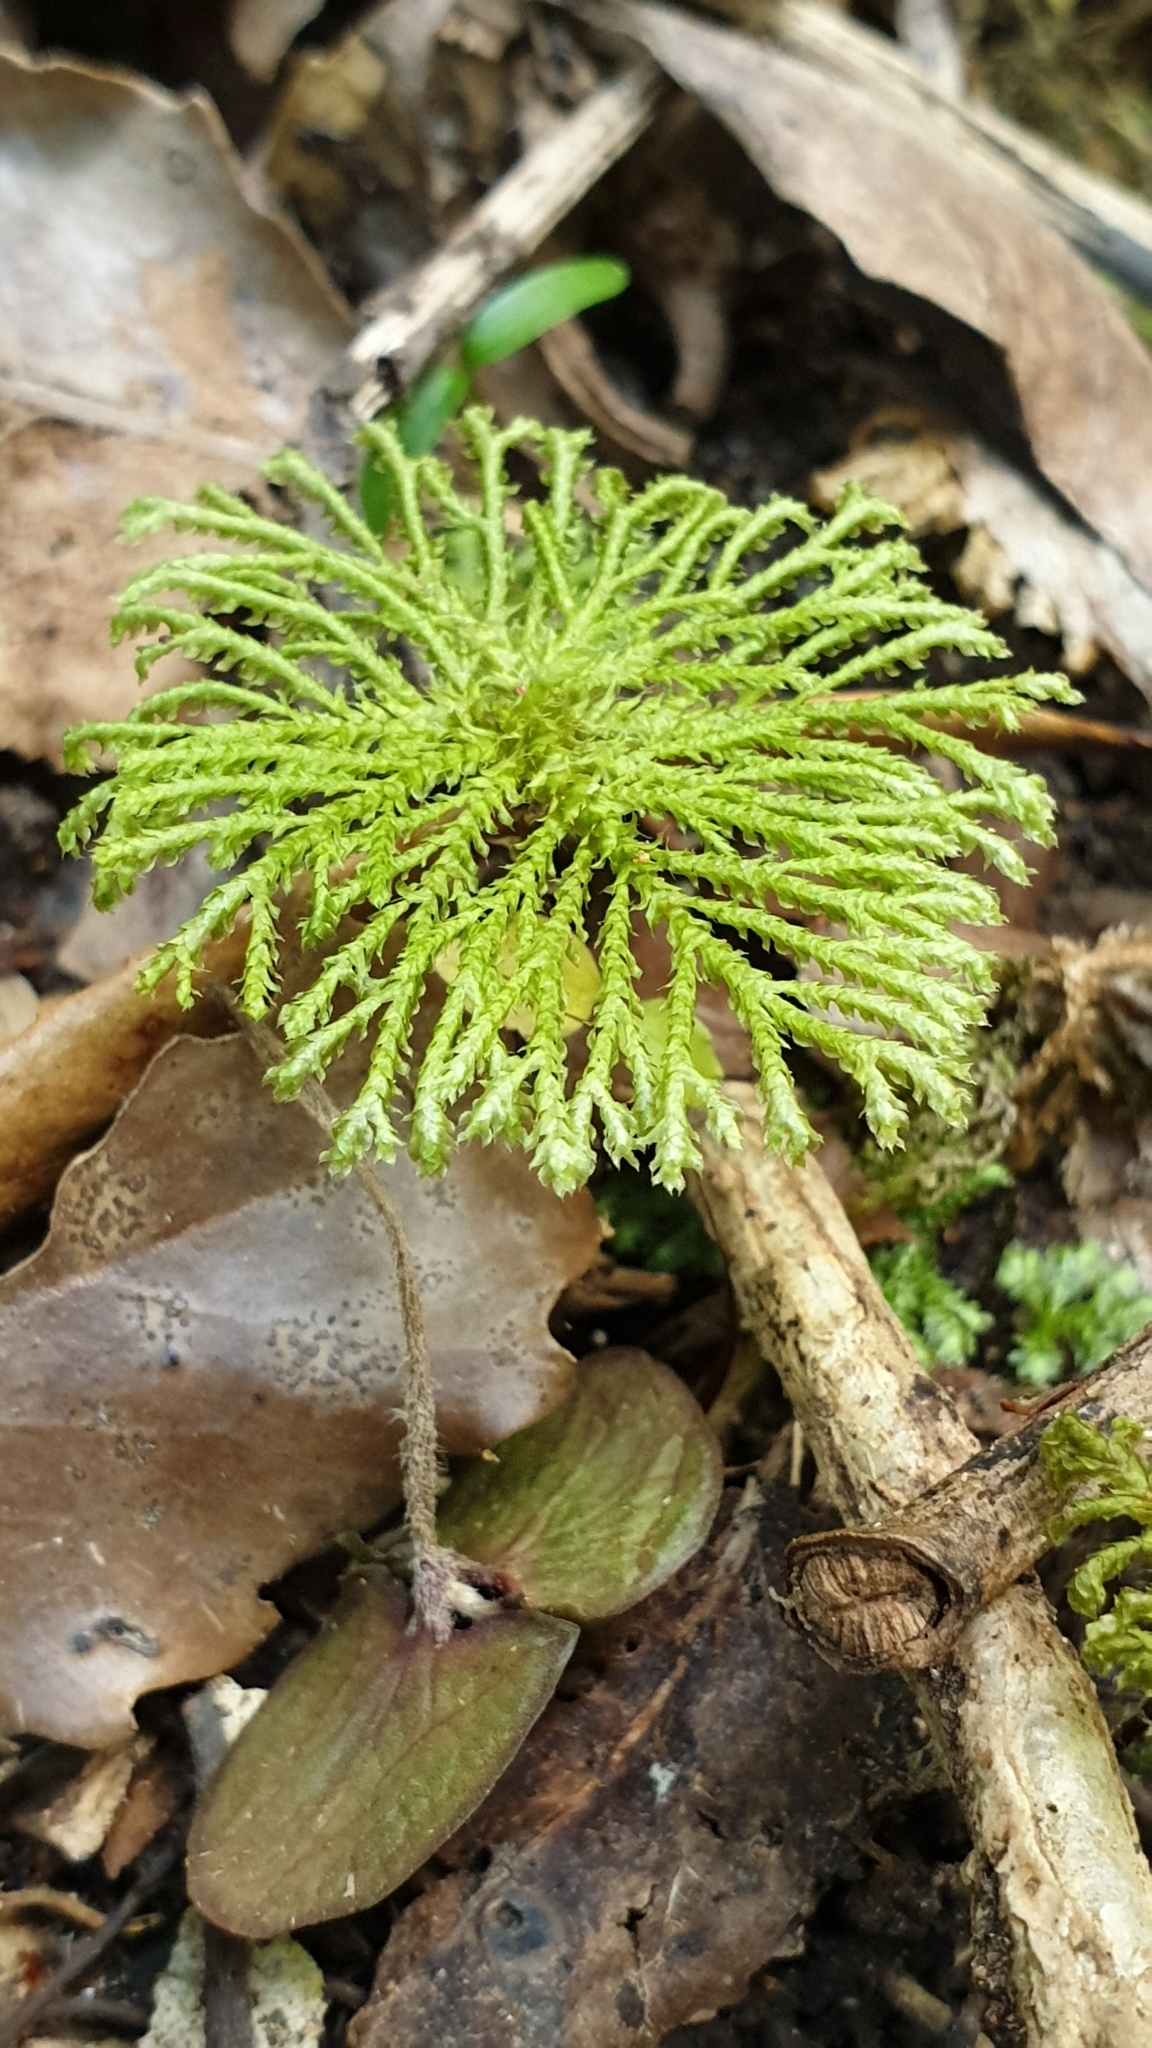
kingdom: Plantae
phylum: Bryophyta
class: Bryopsida
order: Hypopterygiales
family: Hypopterygiaceae
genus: Canalohypopterygium
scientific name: Canalohypopterygium tamariscinum
